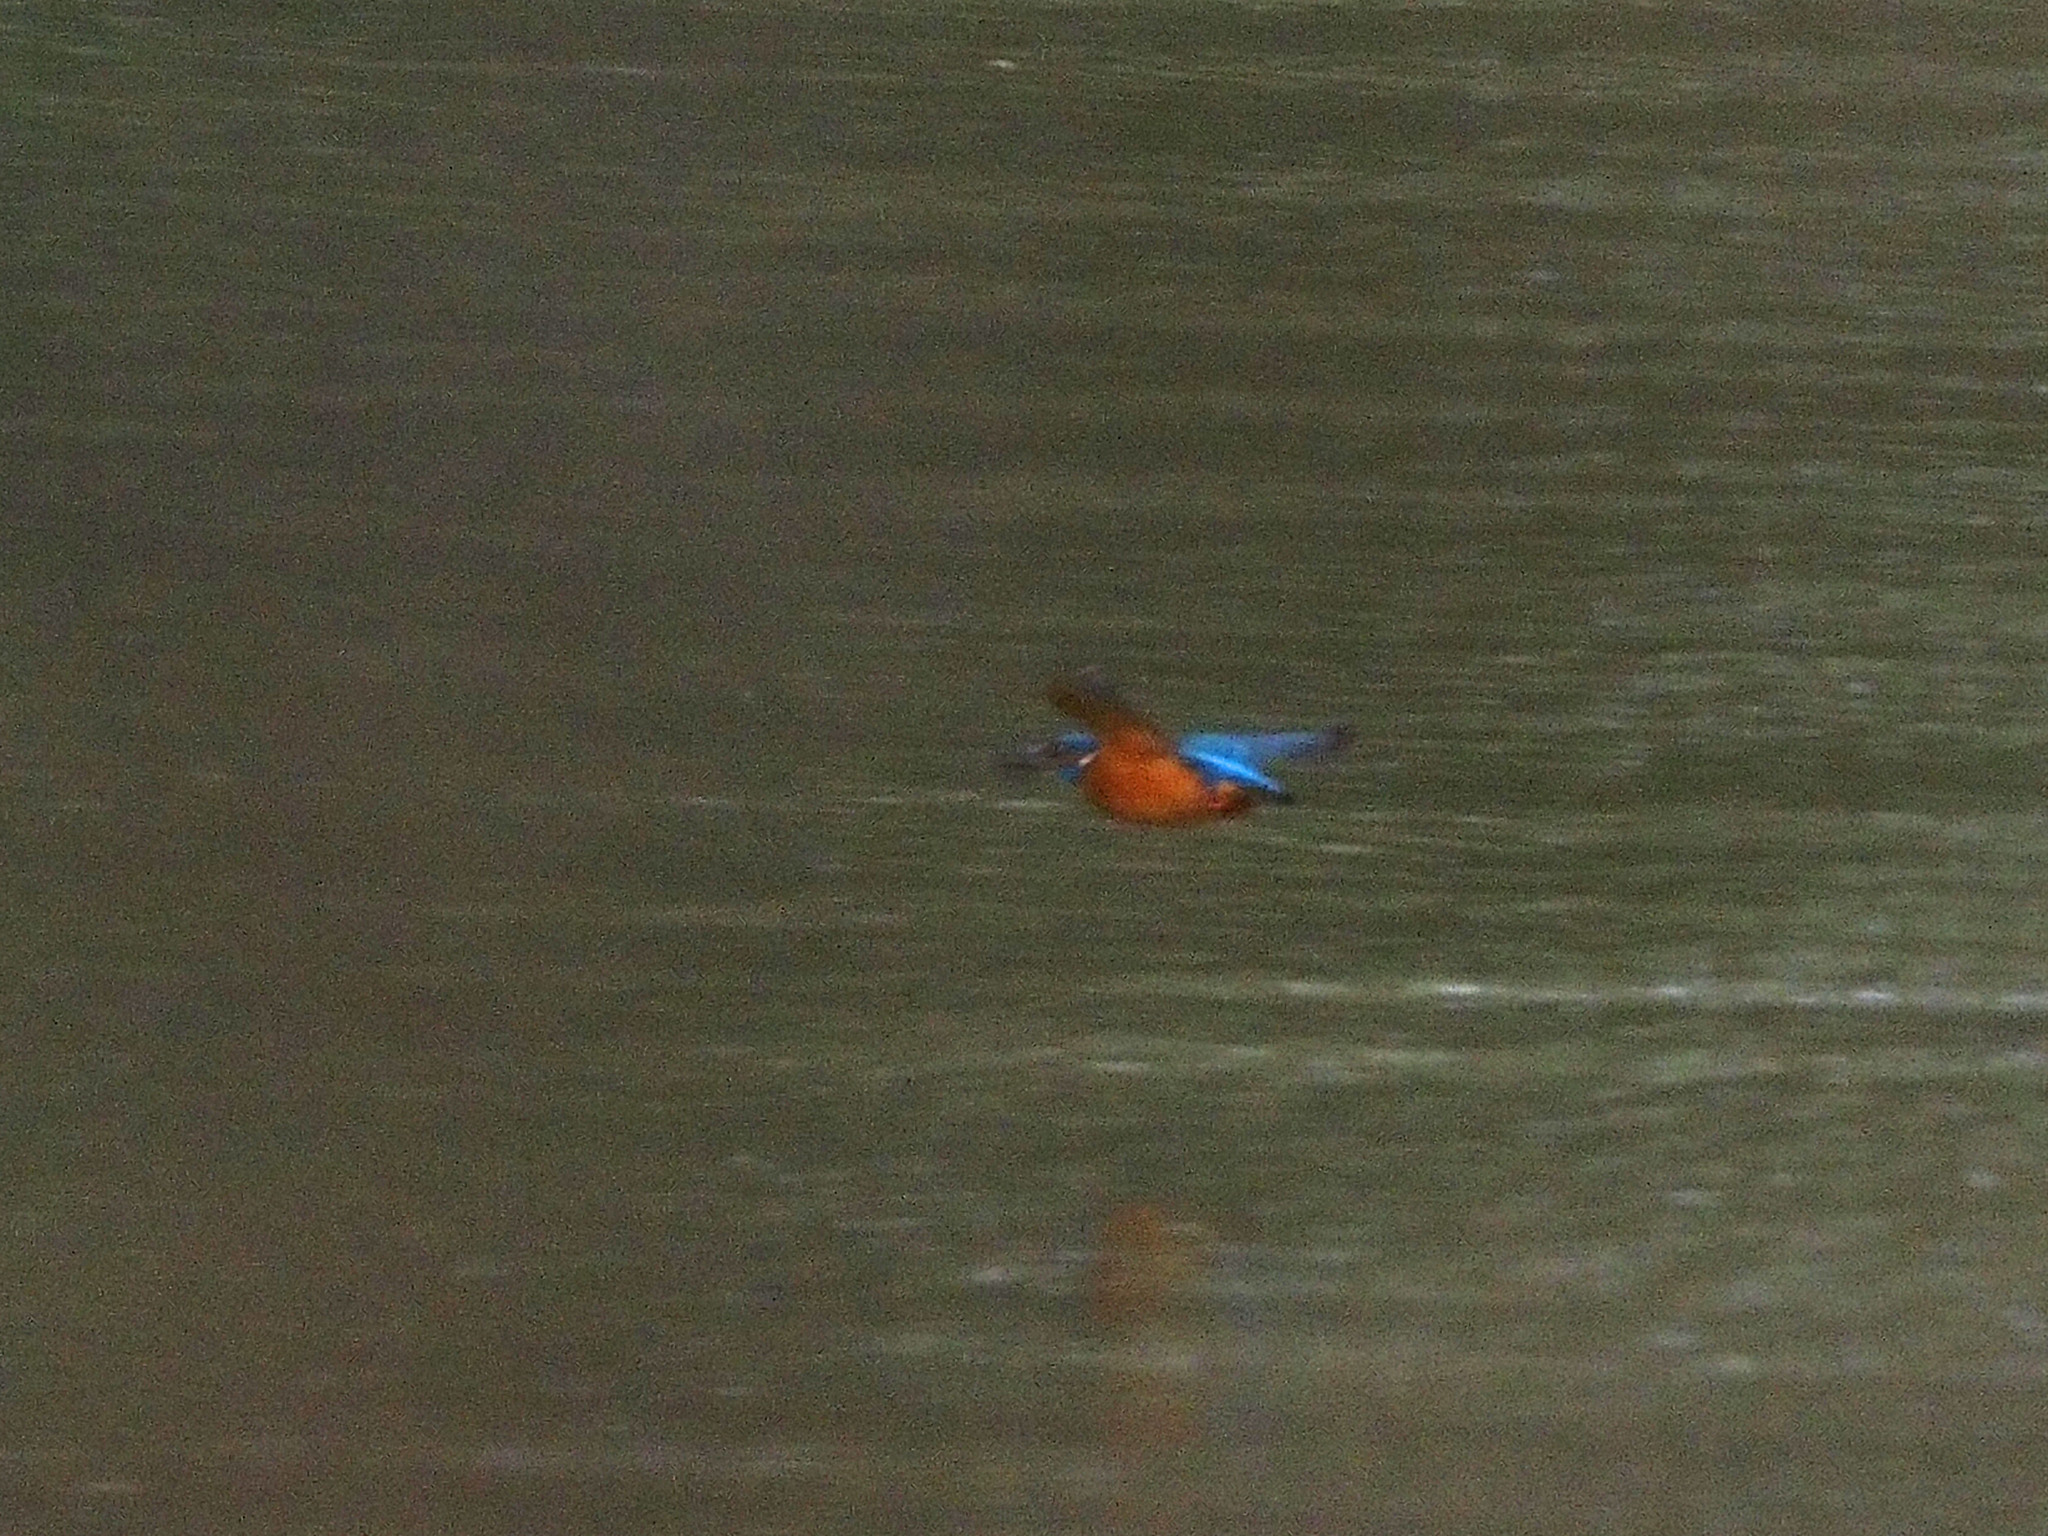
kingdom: Animalia
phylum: Chordata
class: Aves
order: Coraciiformes
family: Alcedinidae
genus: Alcedo
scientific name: Alcedo atthis
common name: Common kingfisher
